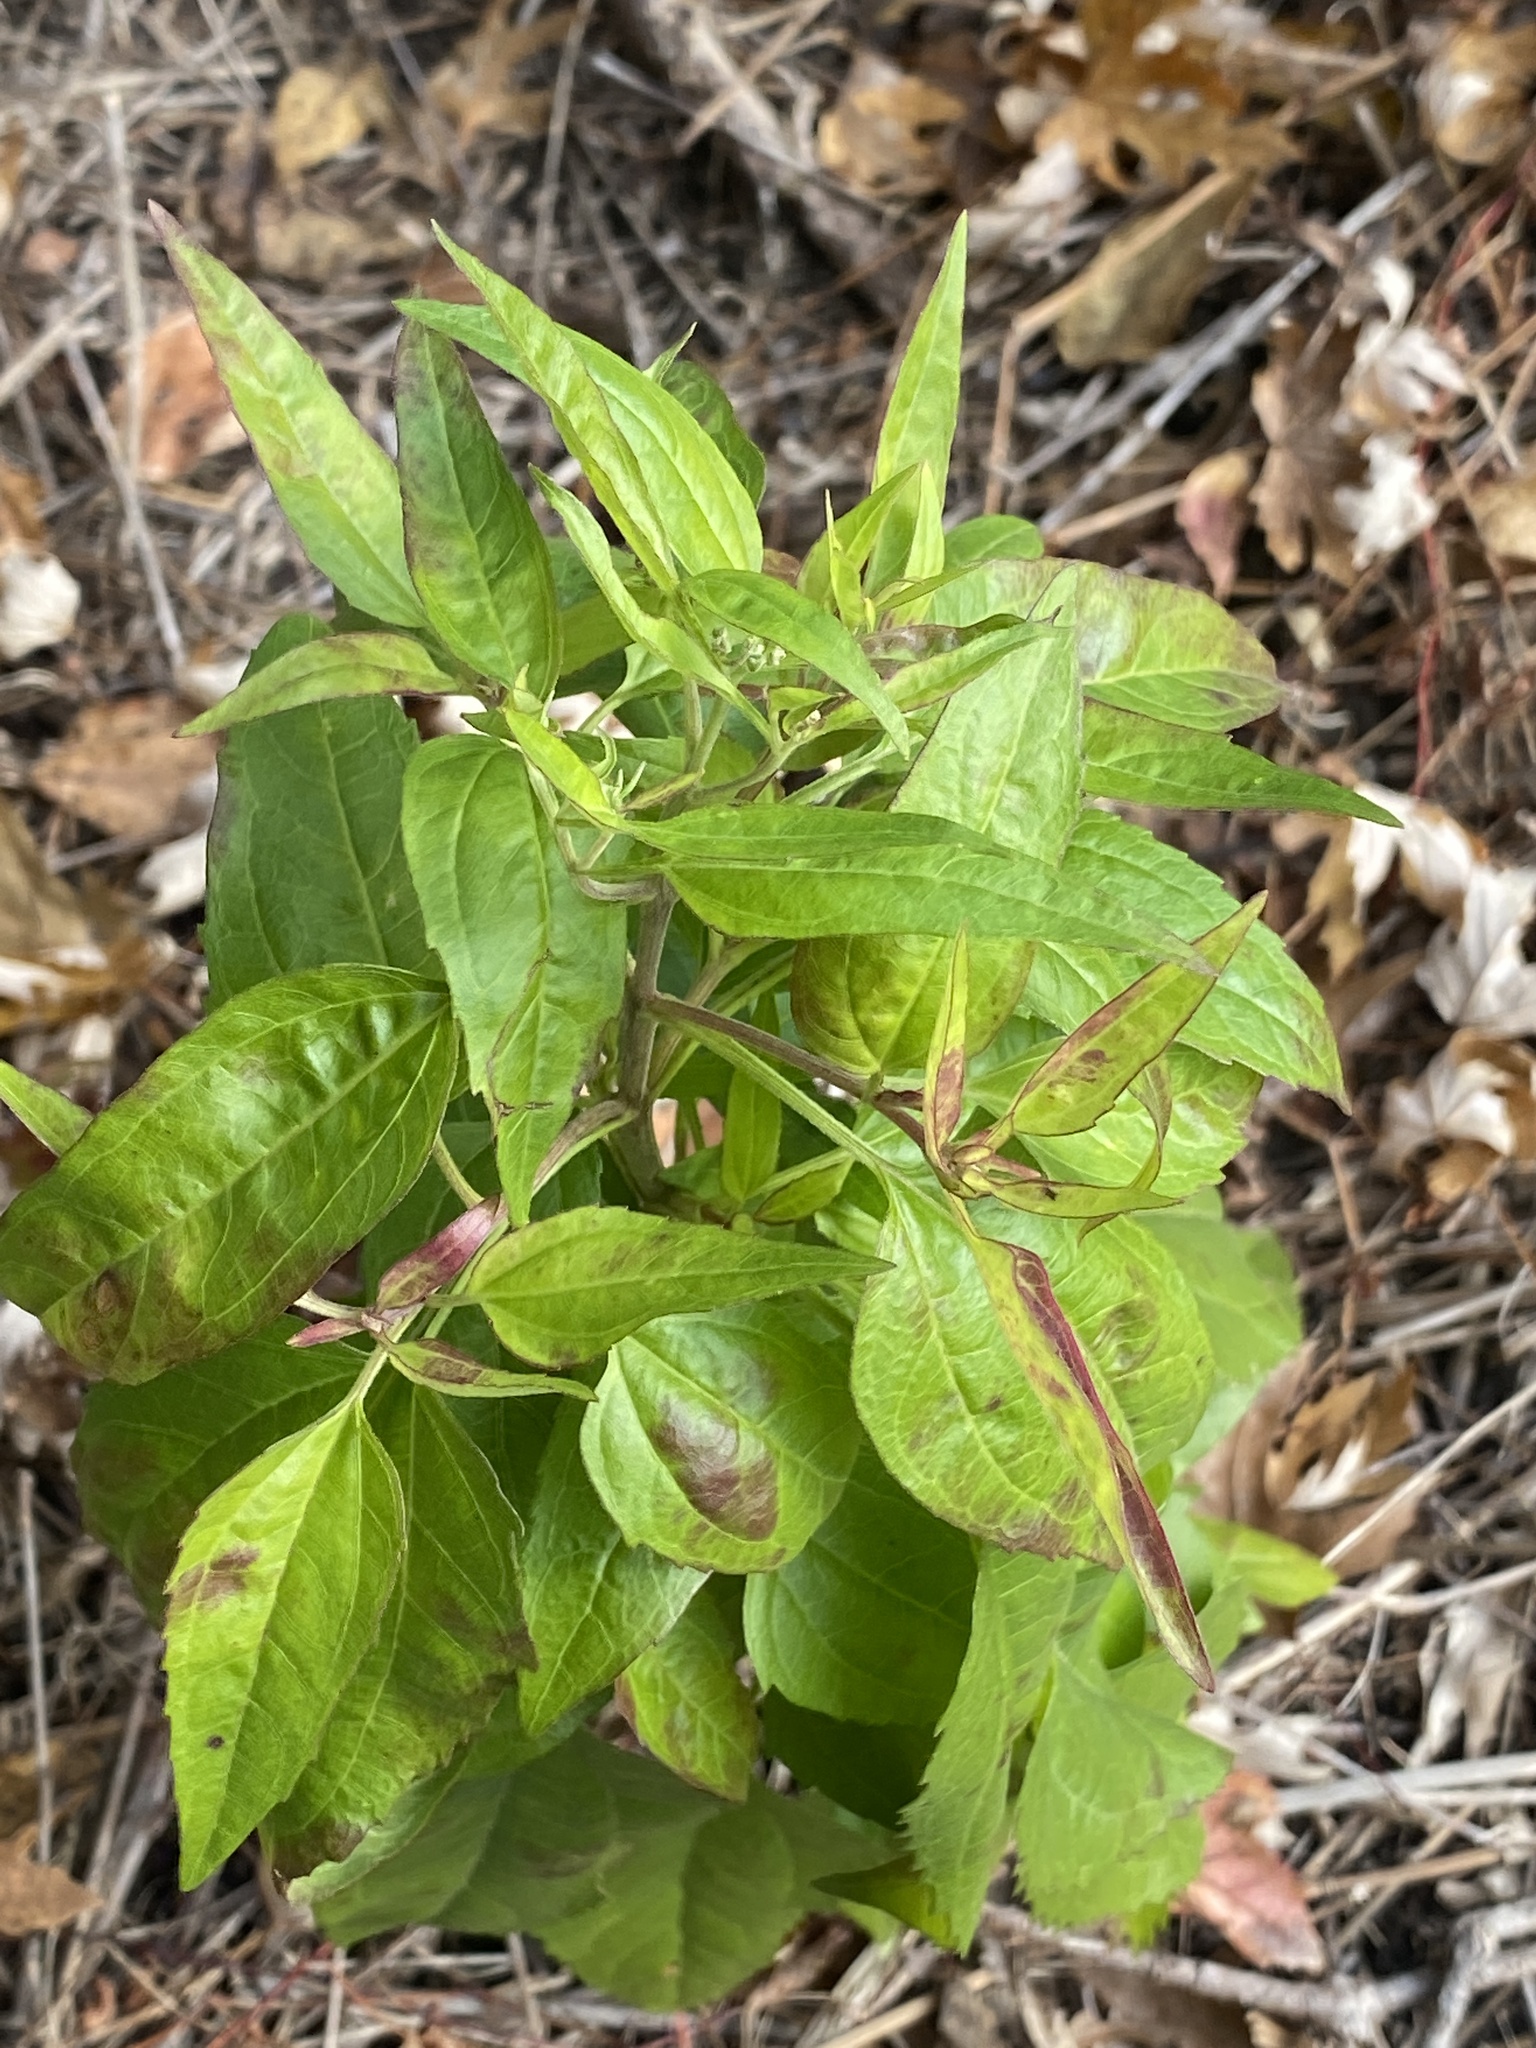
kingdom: Plantae
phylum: Tracheophyta
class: Magnoliopsida
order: Asterales
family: Asteraceae
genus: Eupatorium
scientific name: Eupatorium serotinum
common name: Late boneset
